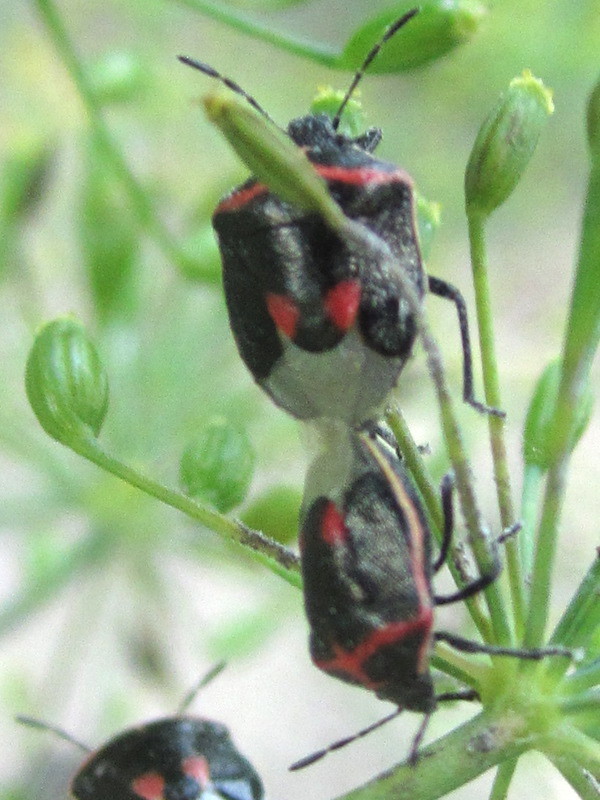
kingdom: Animalia
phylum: Arthropoda
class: Insecta
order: Hemiptera
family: Pentatomidae
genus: Cosmopepla
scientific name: Cosmopepla lintneriana
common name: Twice-stabbed stink bug
